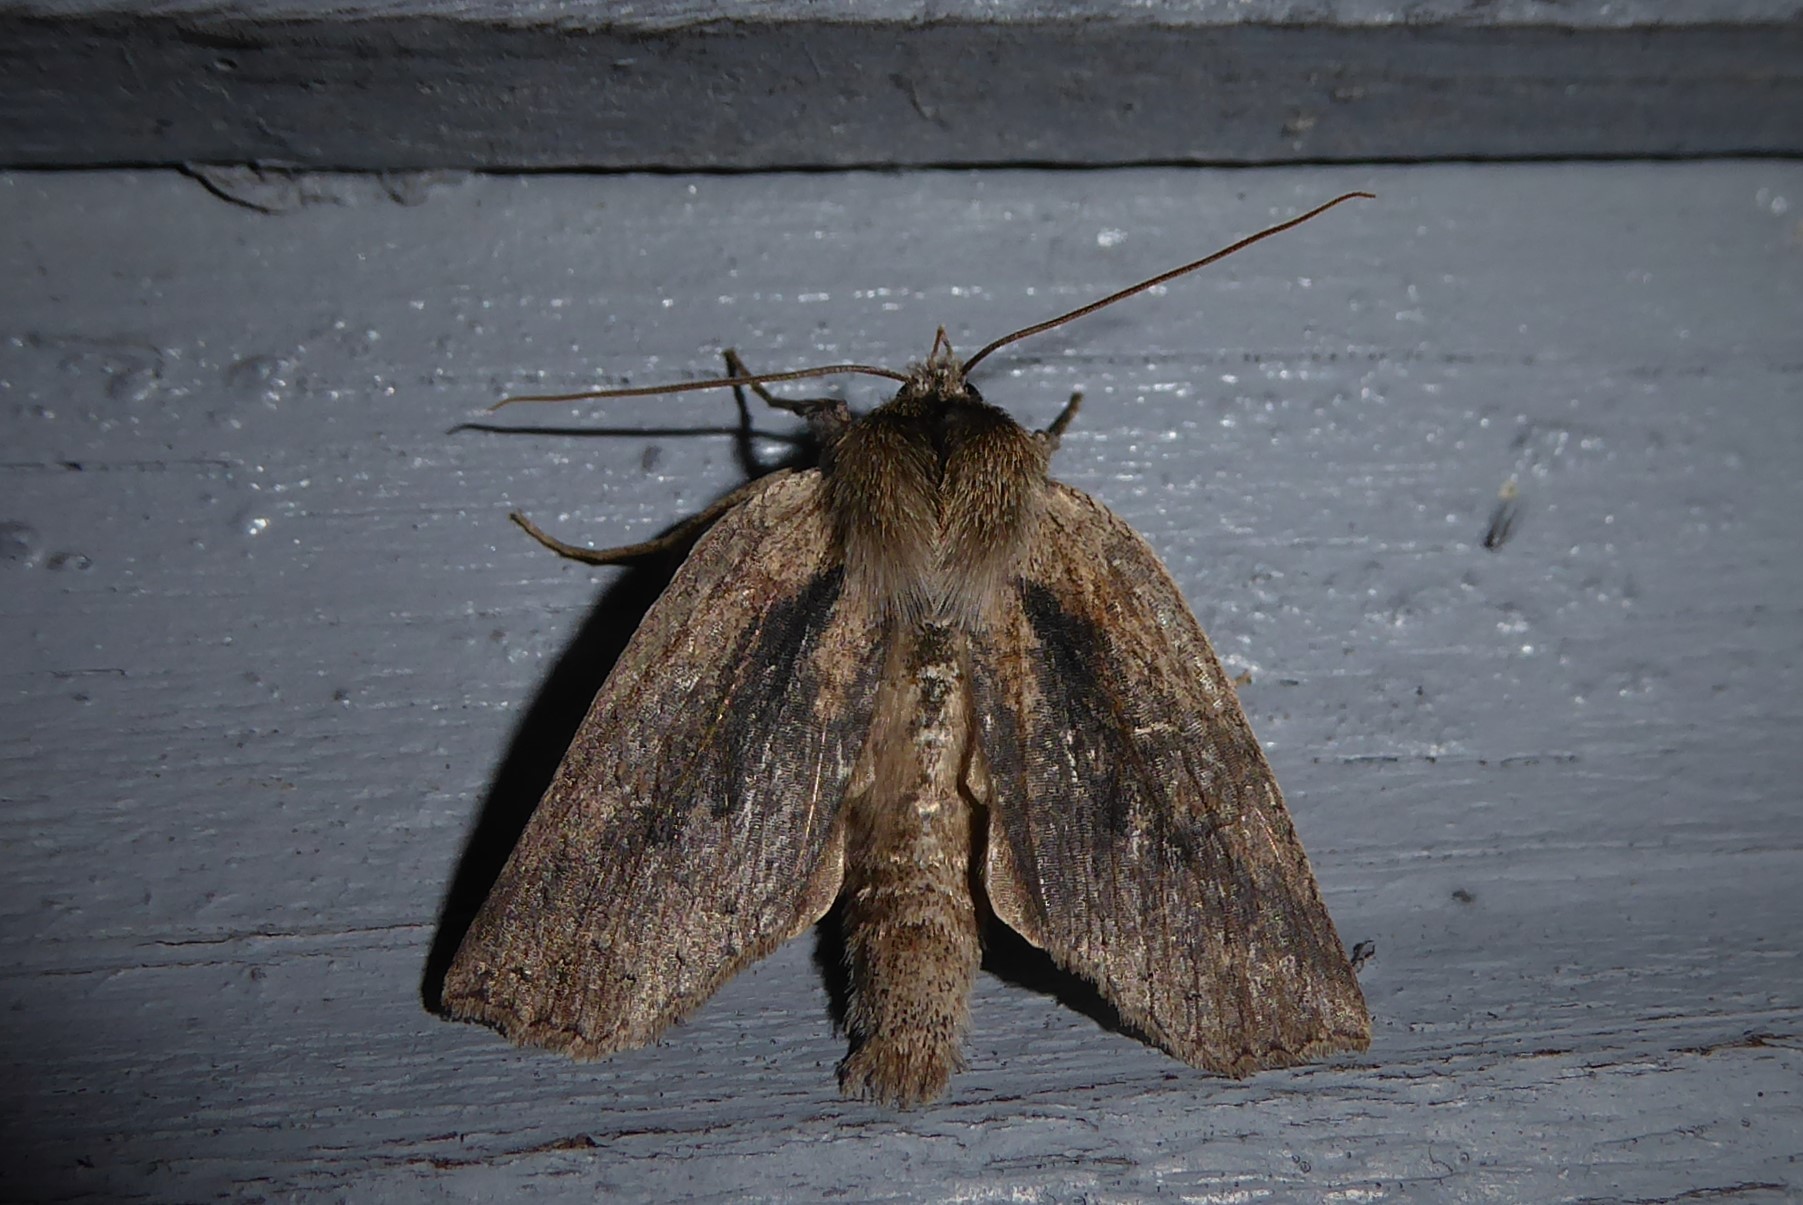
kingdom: Animalia
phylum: Arthropoda
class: Insecta
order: Lepidoptera
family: Geometridae
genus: Declana
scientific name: Declana leptomera
